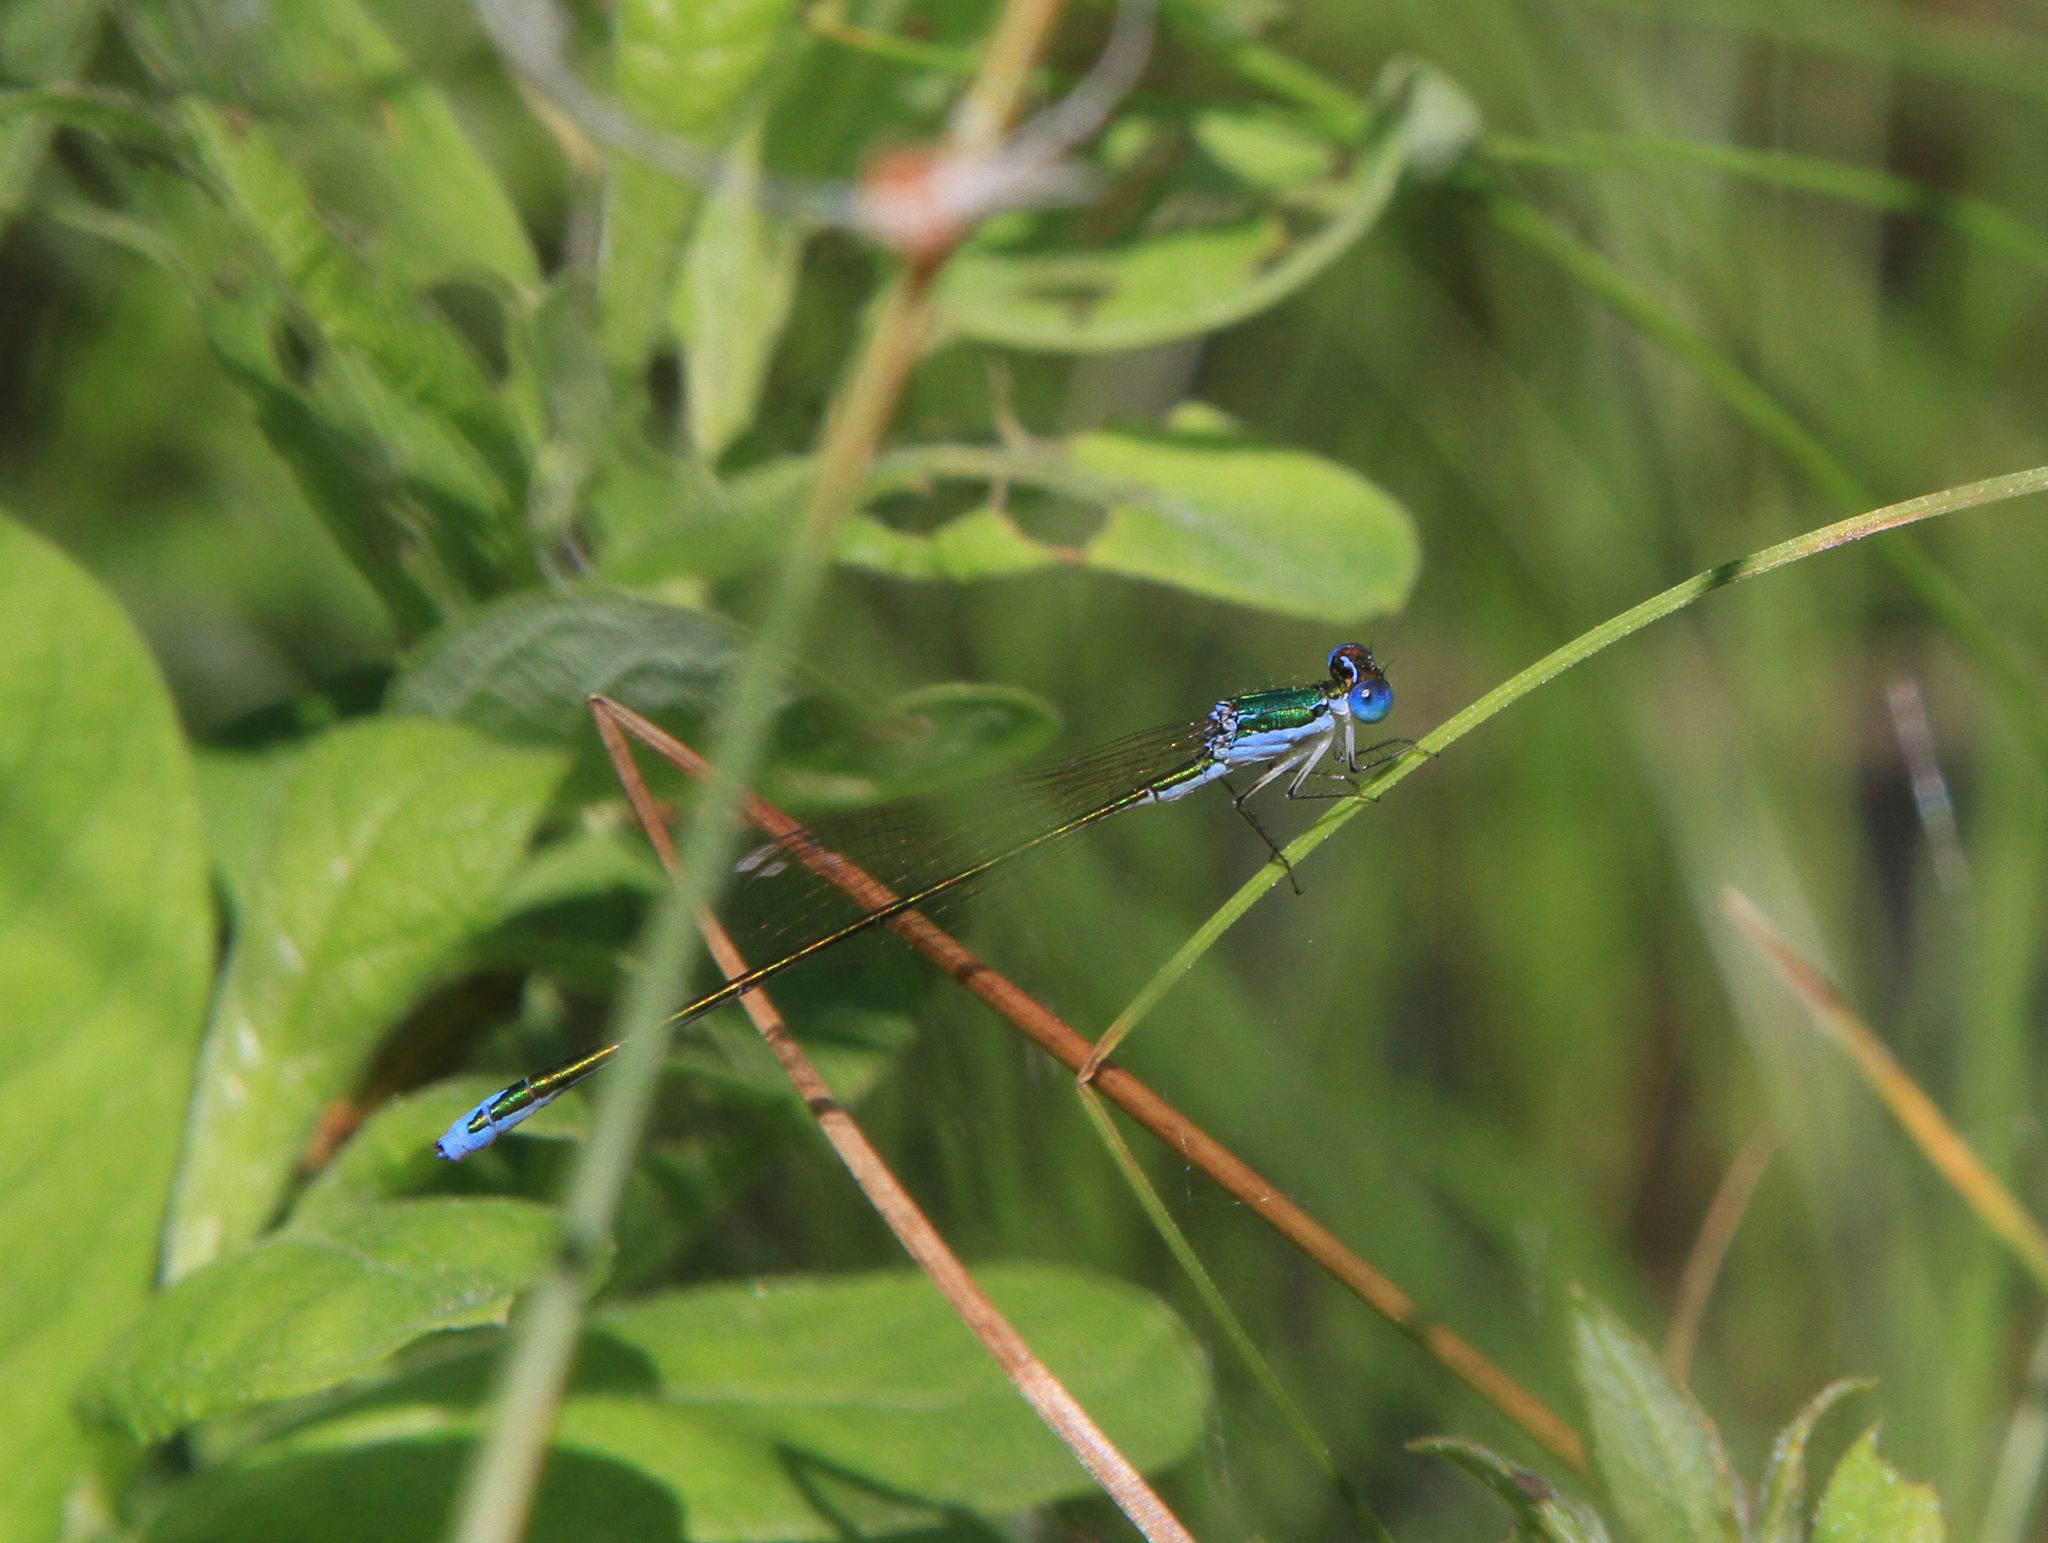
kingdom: Animalia
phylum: Arthropoda
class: Insecta
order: Odonata
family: Coenagrionidae
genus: Nehalennia
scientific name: Nehalennia speciosa
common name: Sedgling
